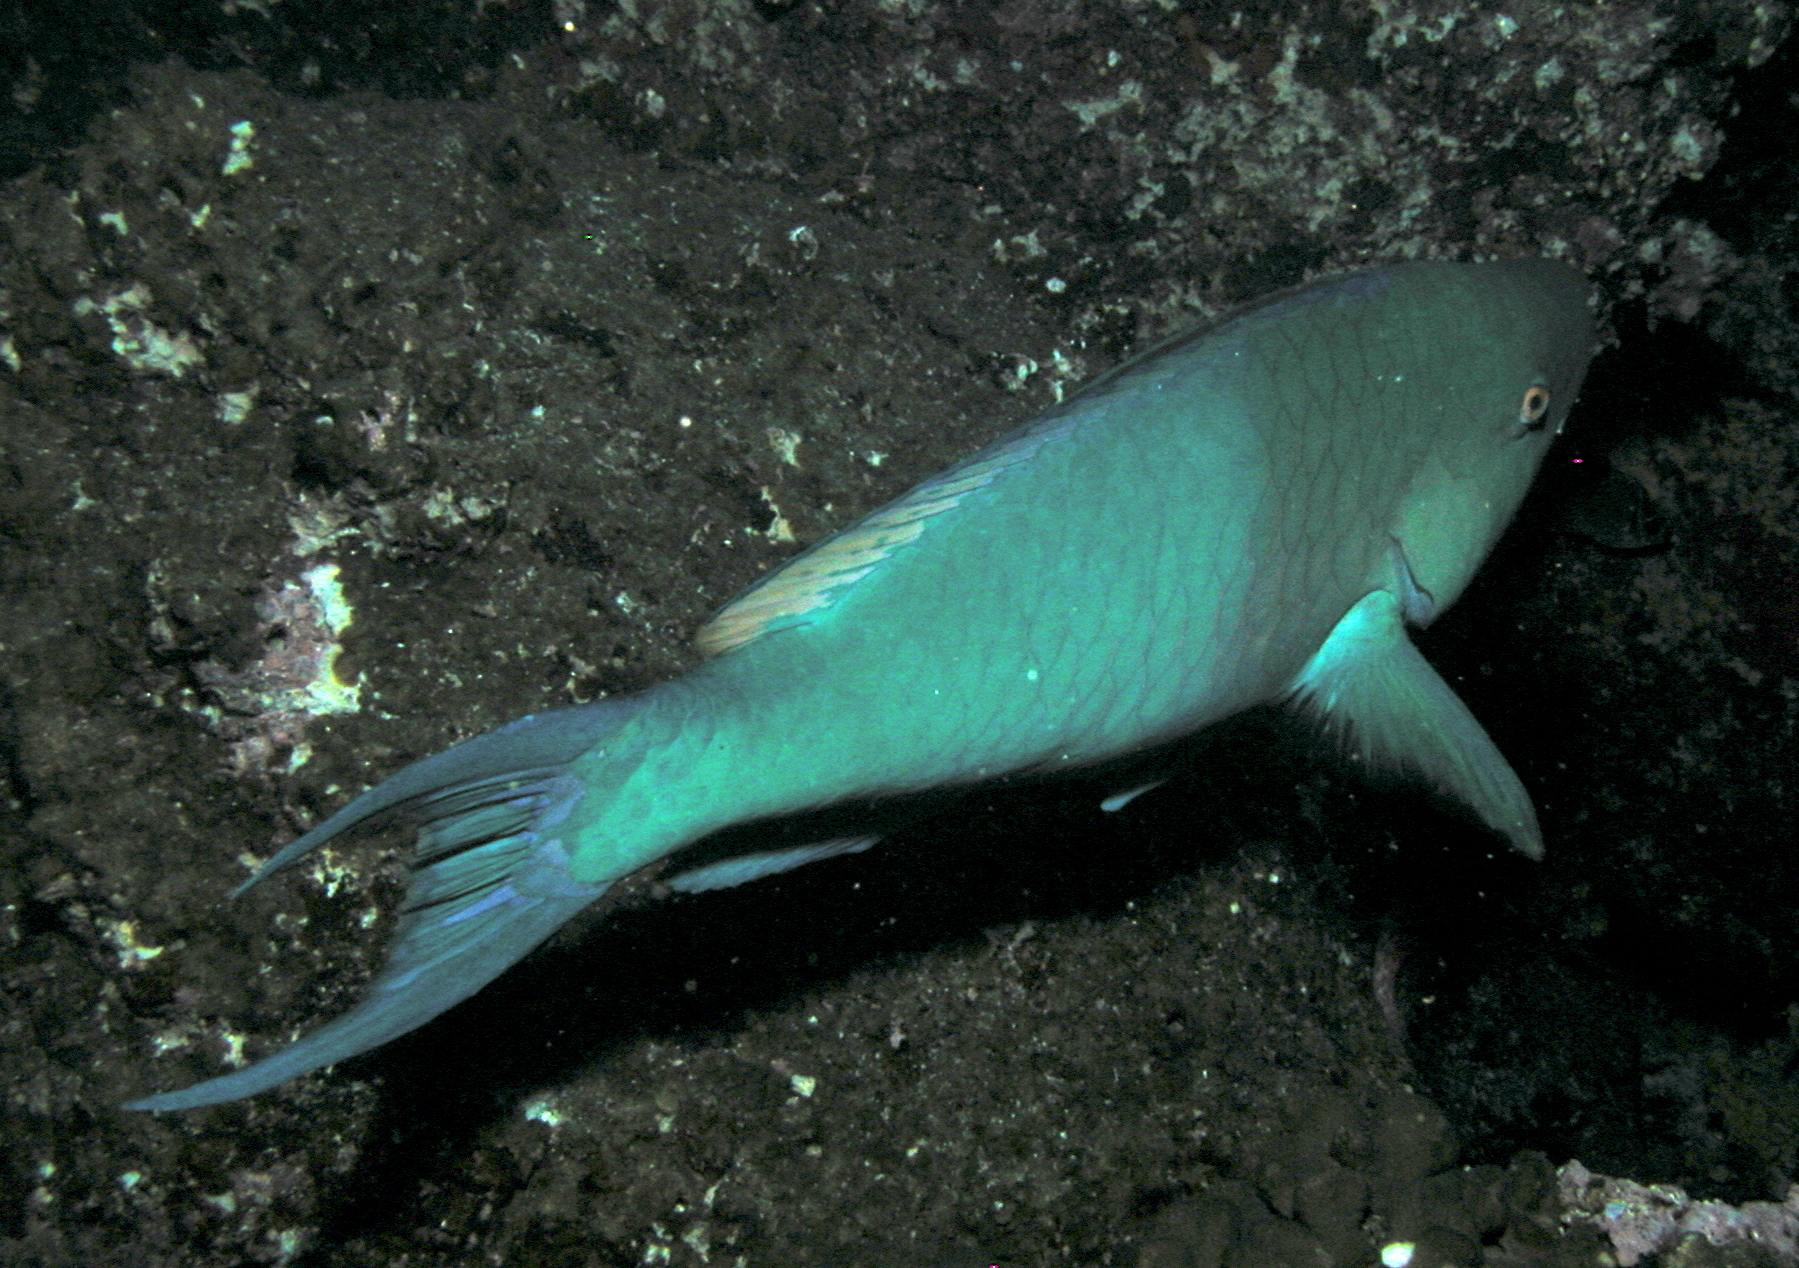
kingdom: Animalia
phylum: Chordata
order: Perciformes
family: Scaridae
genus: Scarus
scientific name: Scarus rubroviolaceus
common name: Ember parrotfish
